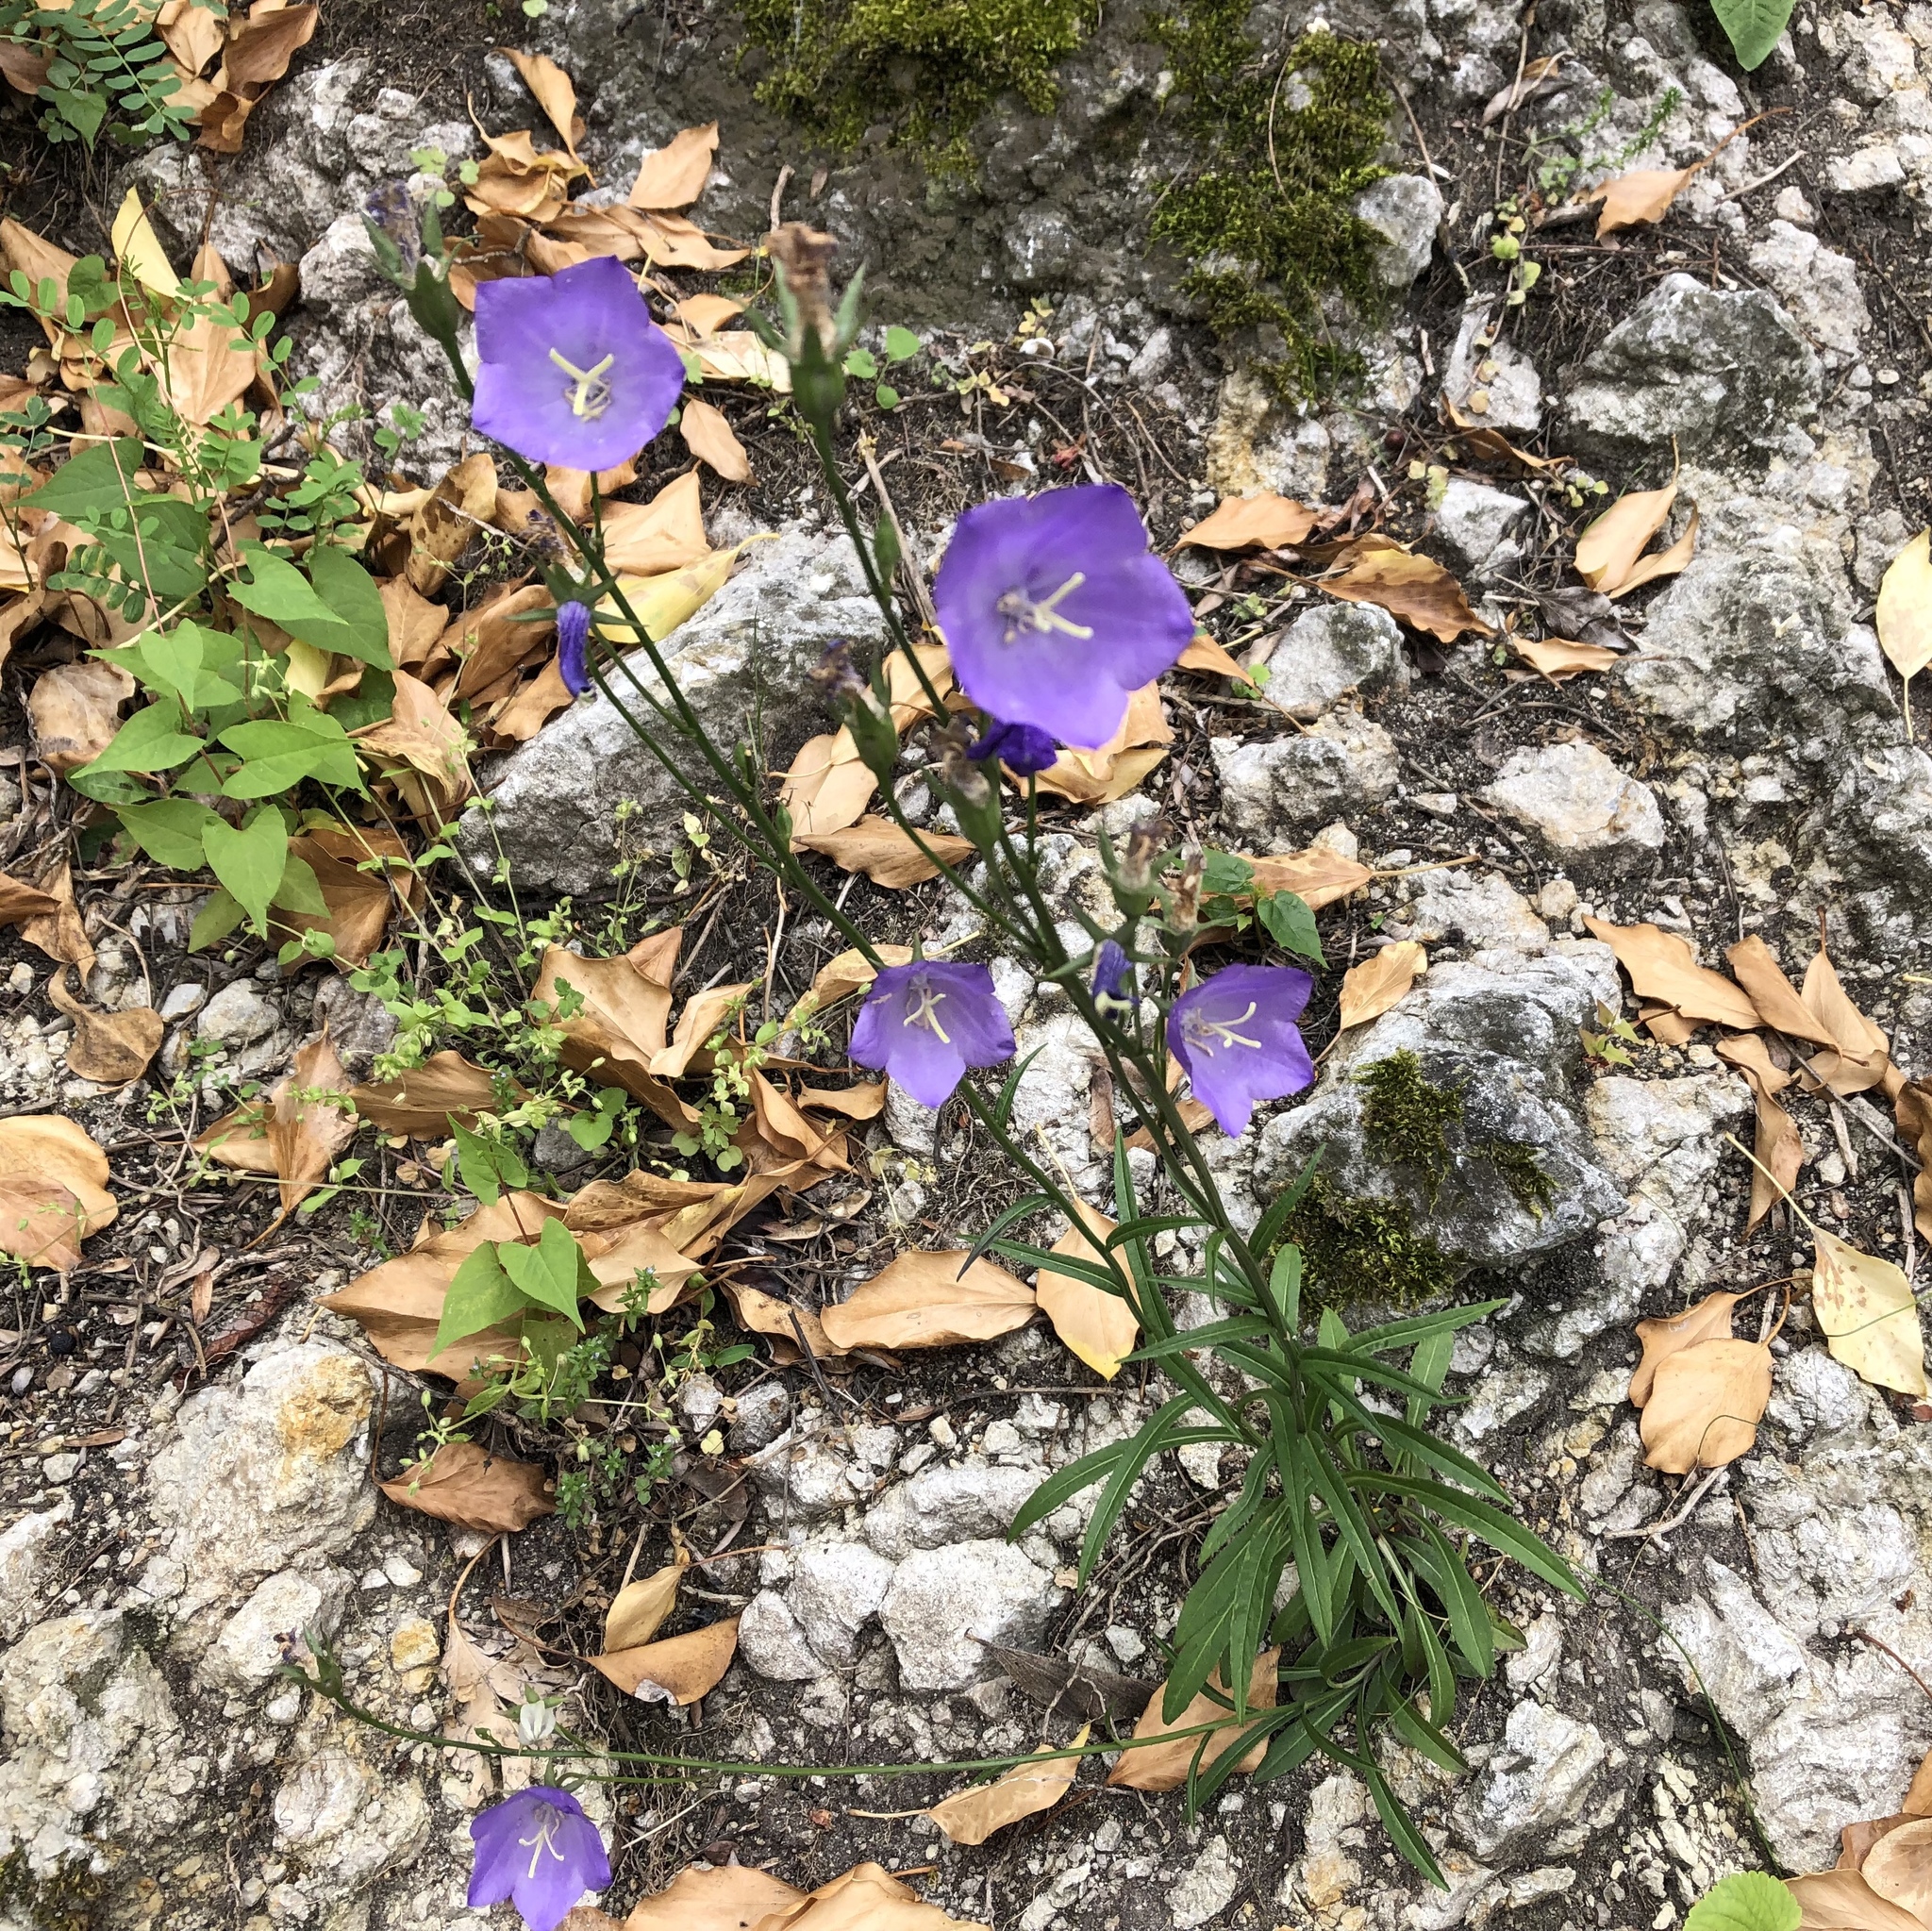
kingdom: Plantae
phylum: Tracheophyta
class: Magnoliopsida
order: Asterales
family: Campanulaceae
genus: Campanula
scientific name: Campanula persicifolia
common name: Peach-leaved bellflower
